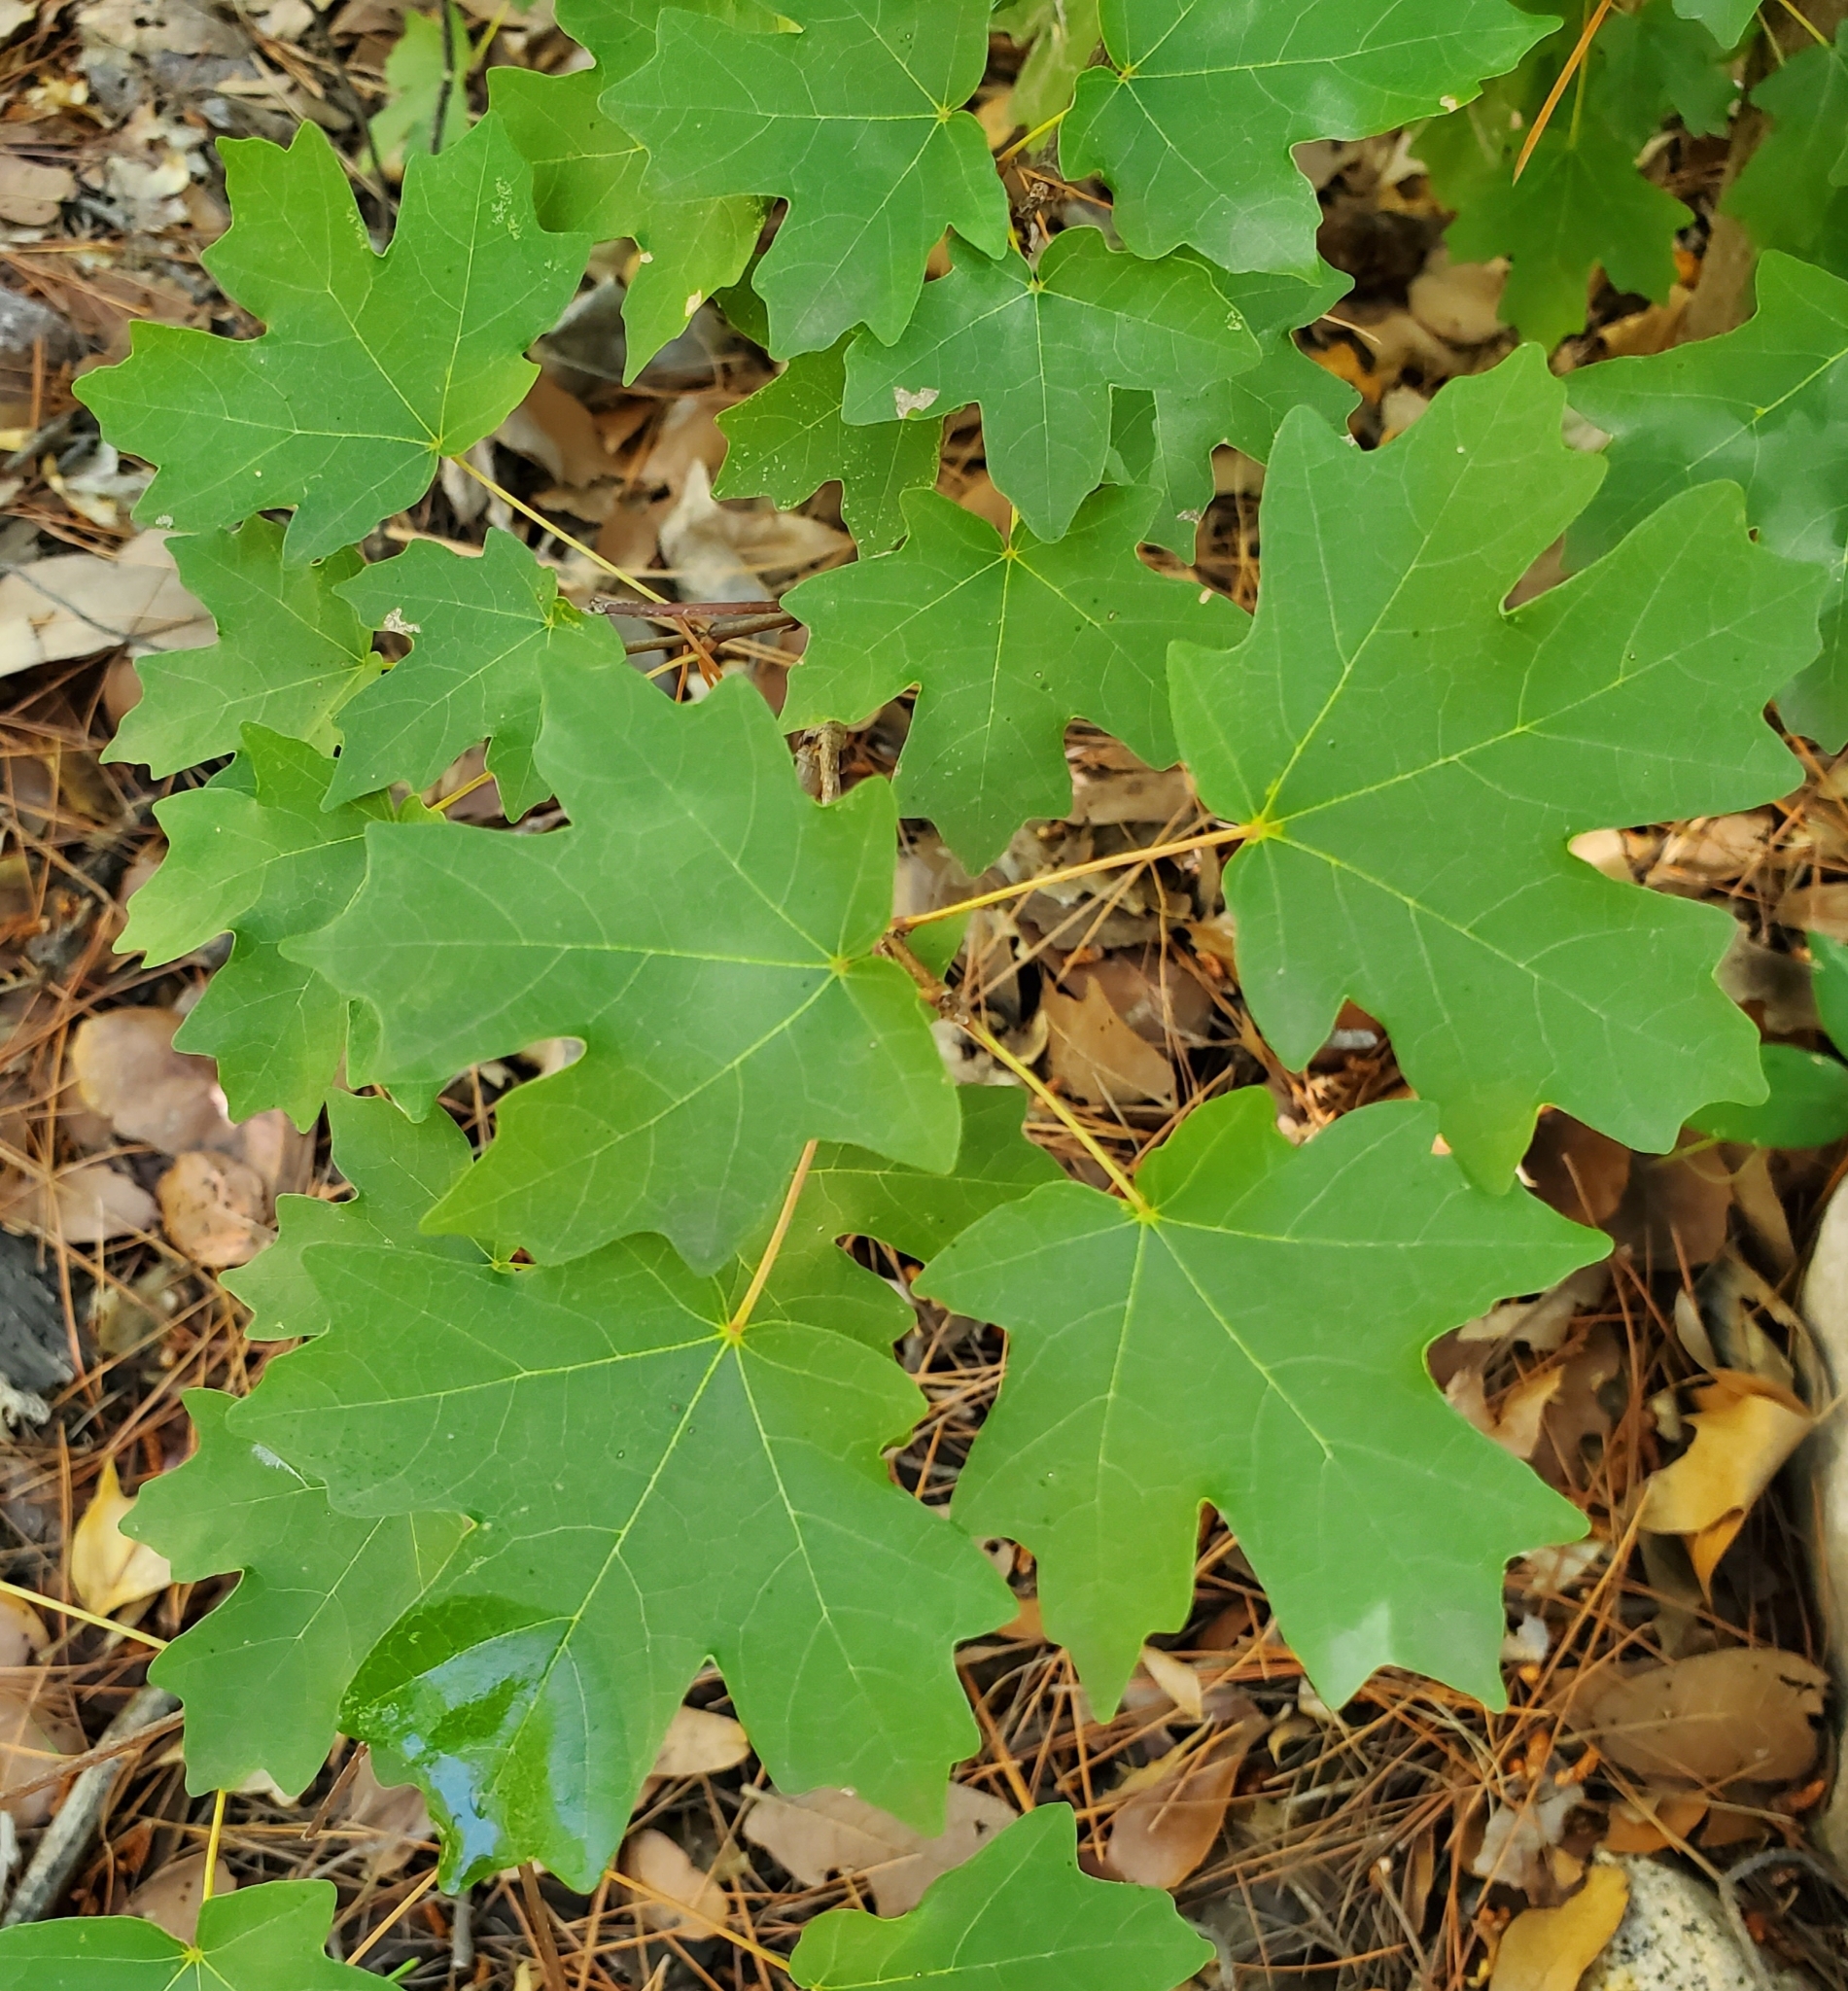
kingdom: Plantae
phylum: Tracheophyta
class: Magnoliopsida
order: Sapindales
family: Sapindaceae
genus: Acer
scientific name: Acer grandidentatum
